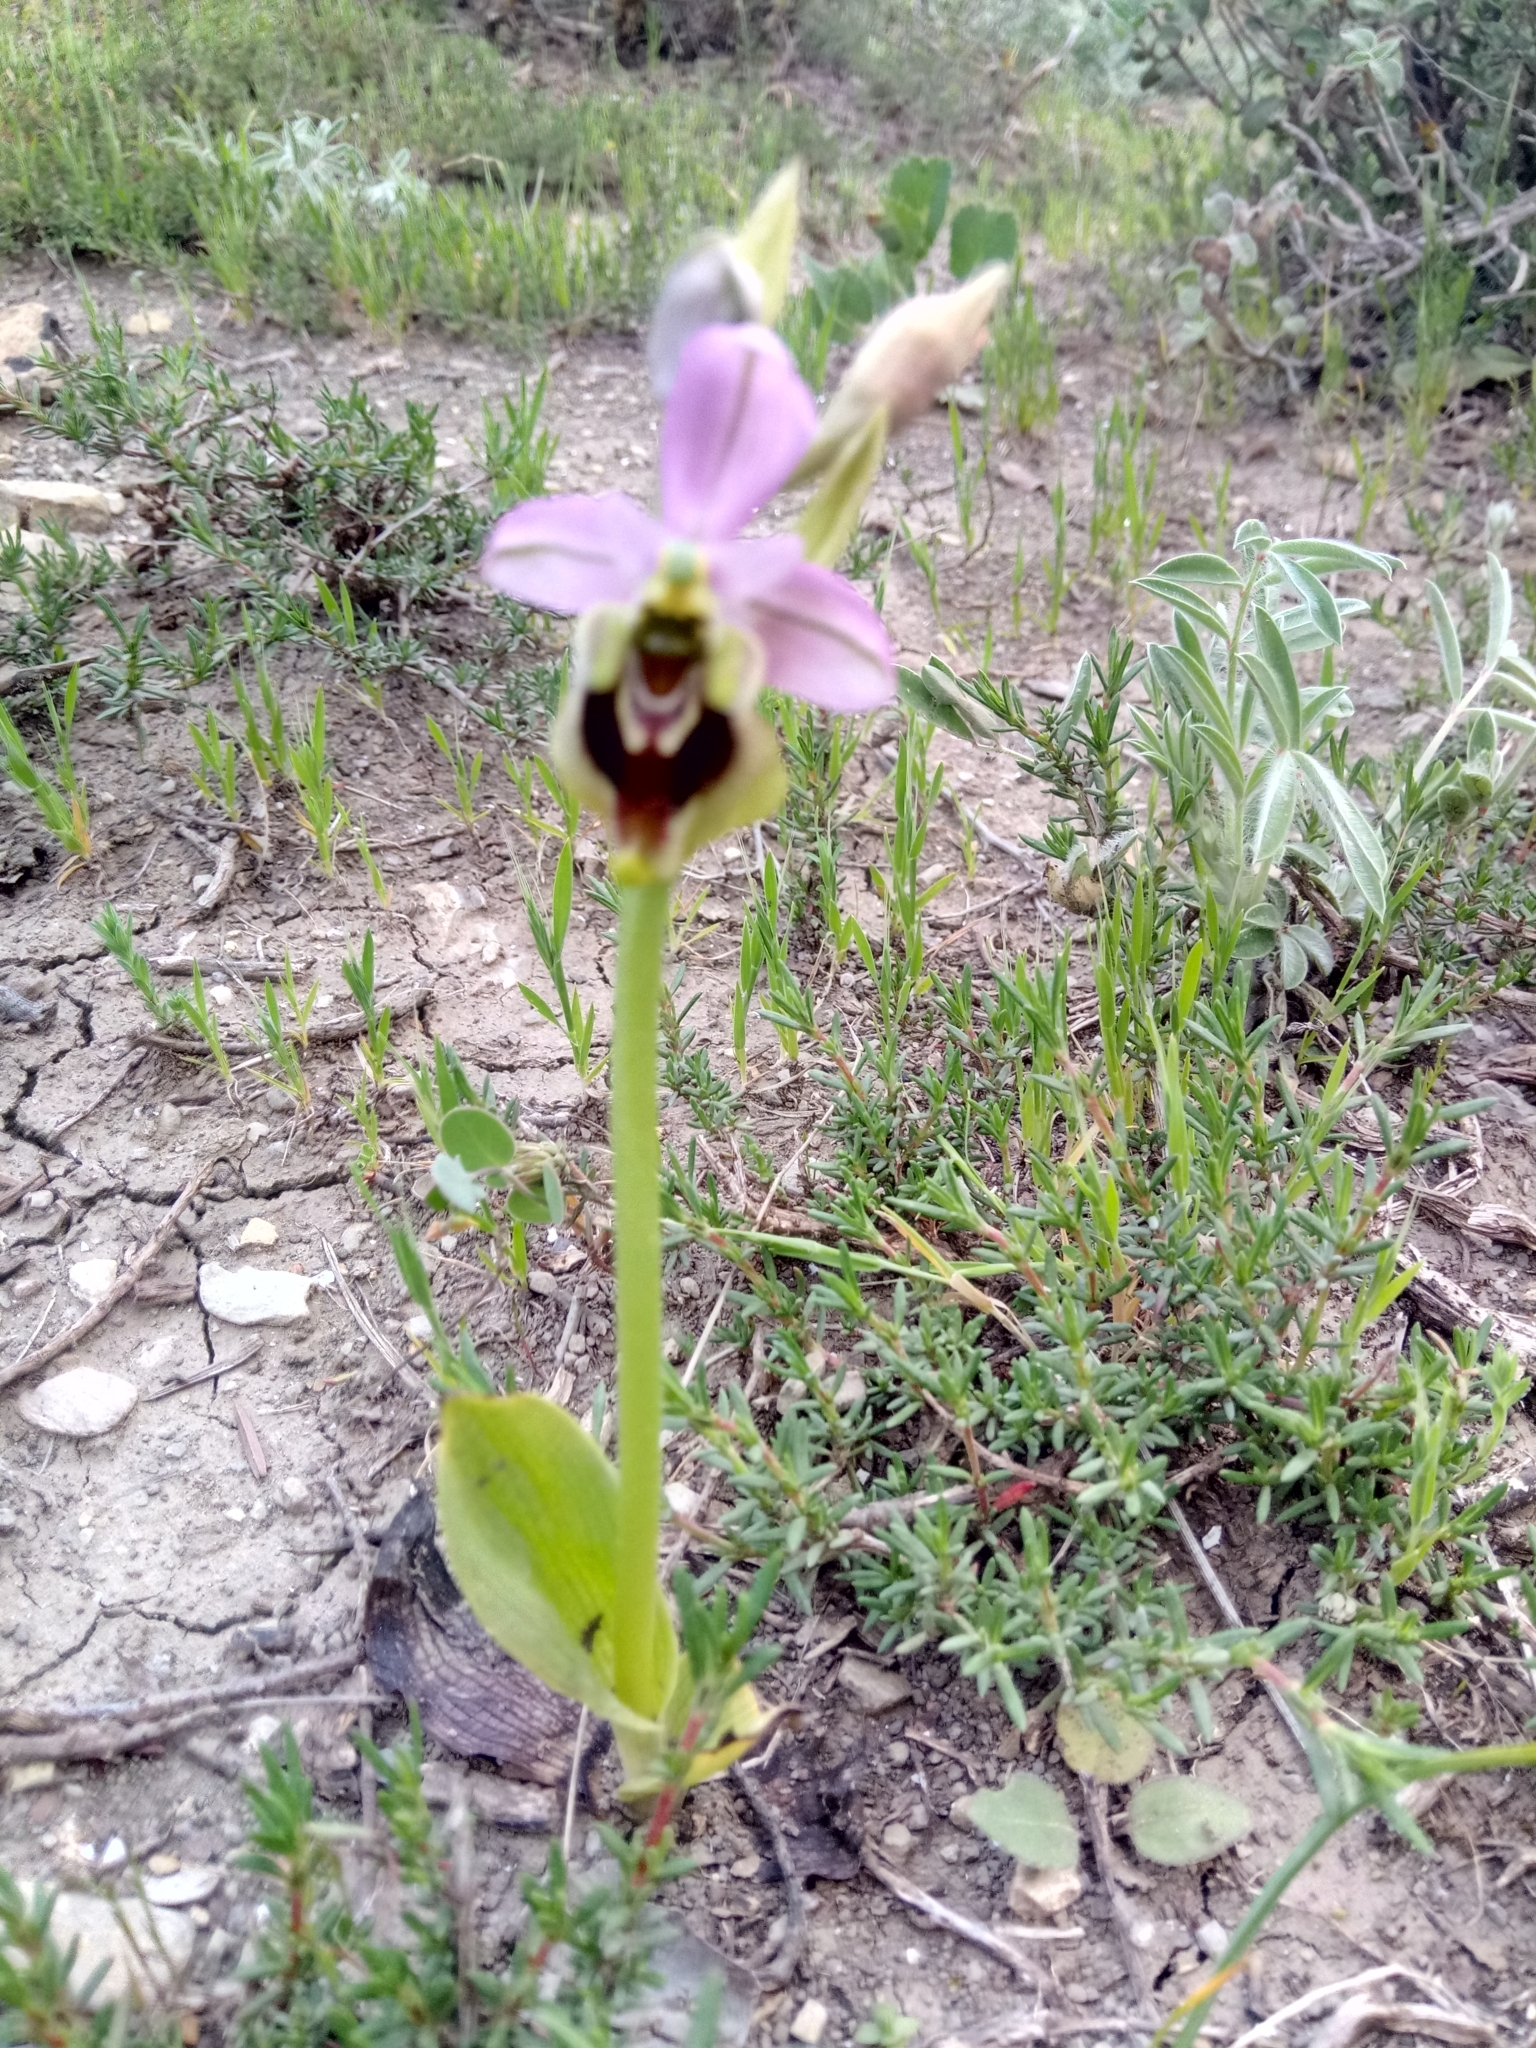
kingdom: Plantae
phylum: Tracheophyta
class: Liliopsida
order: Asparagales
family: Orchidaceae
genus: Ophrys
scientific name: Ophrys tenthredinifera
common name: Sawfly orchid
